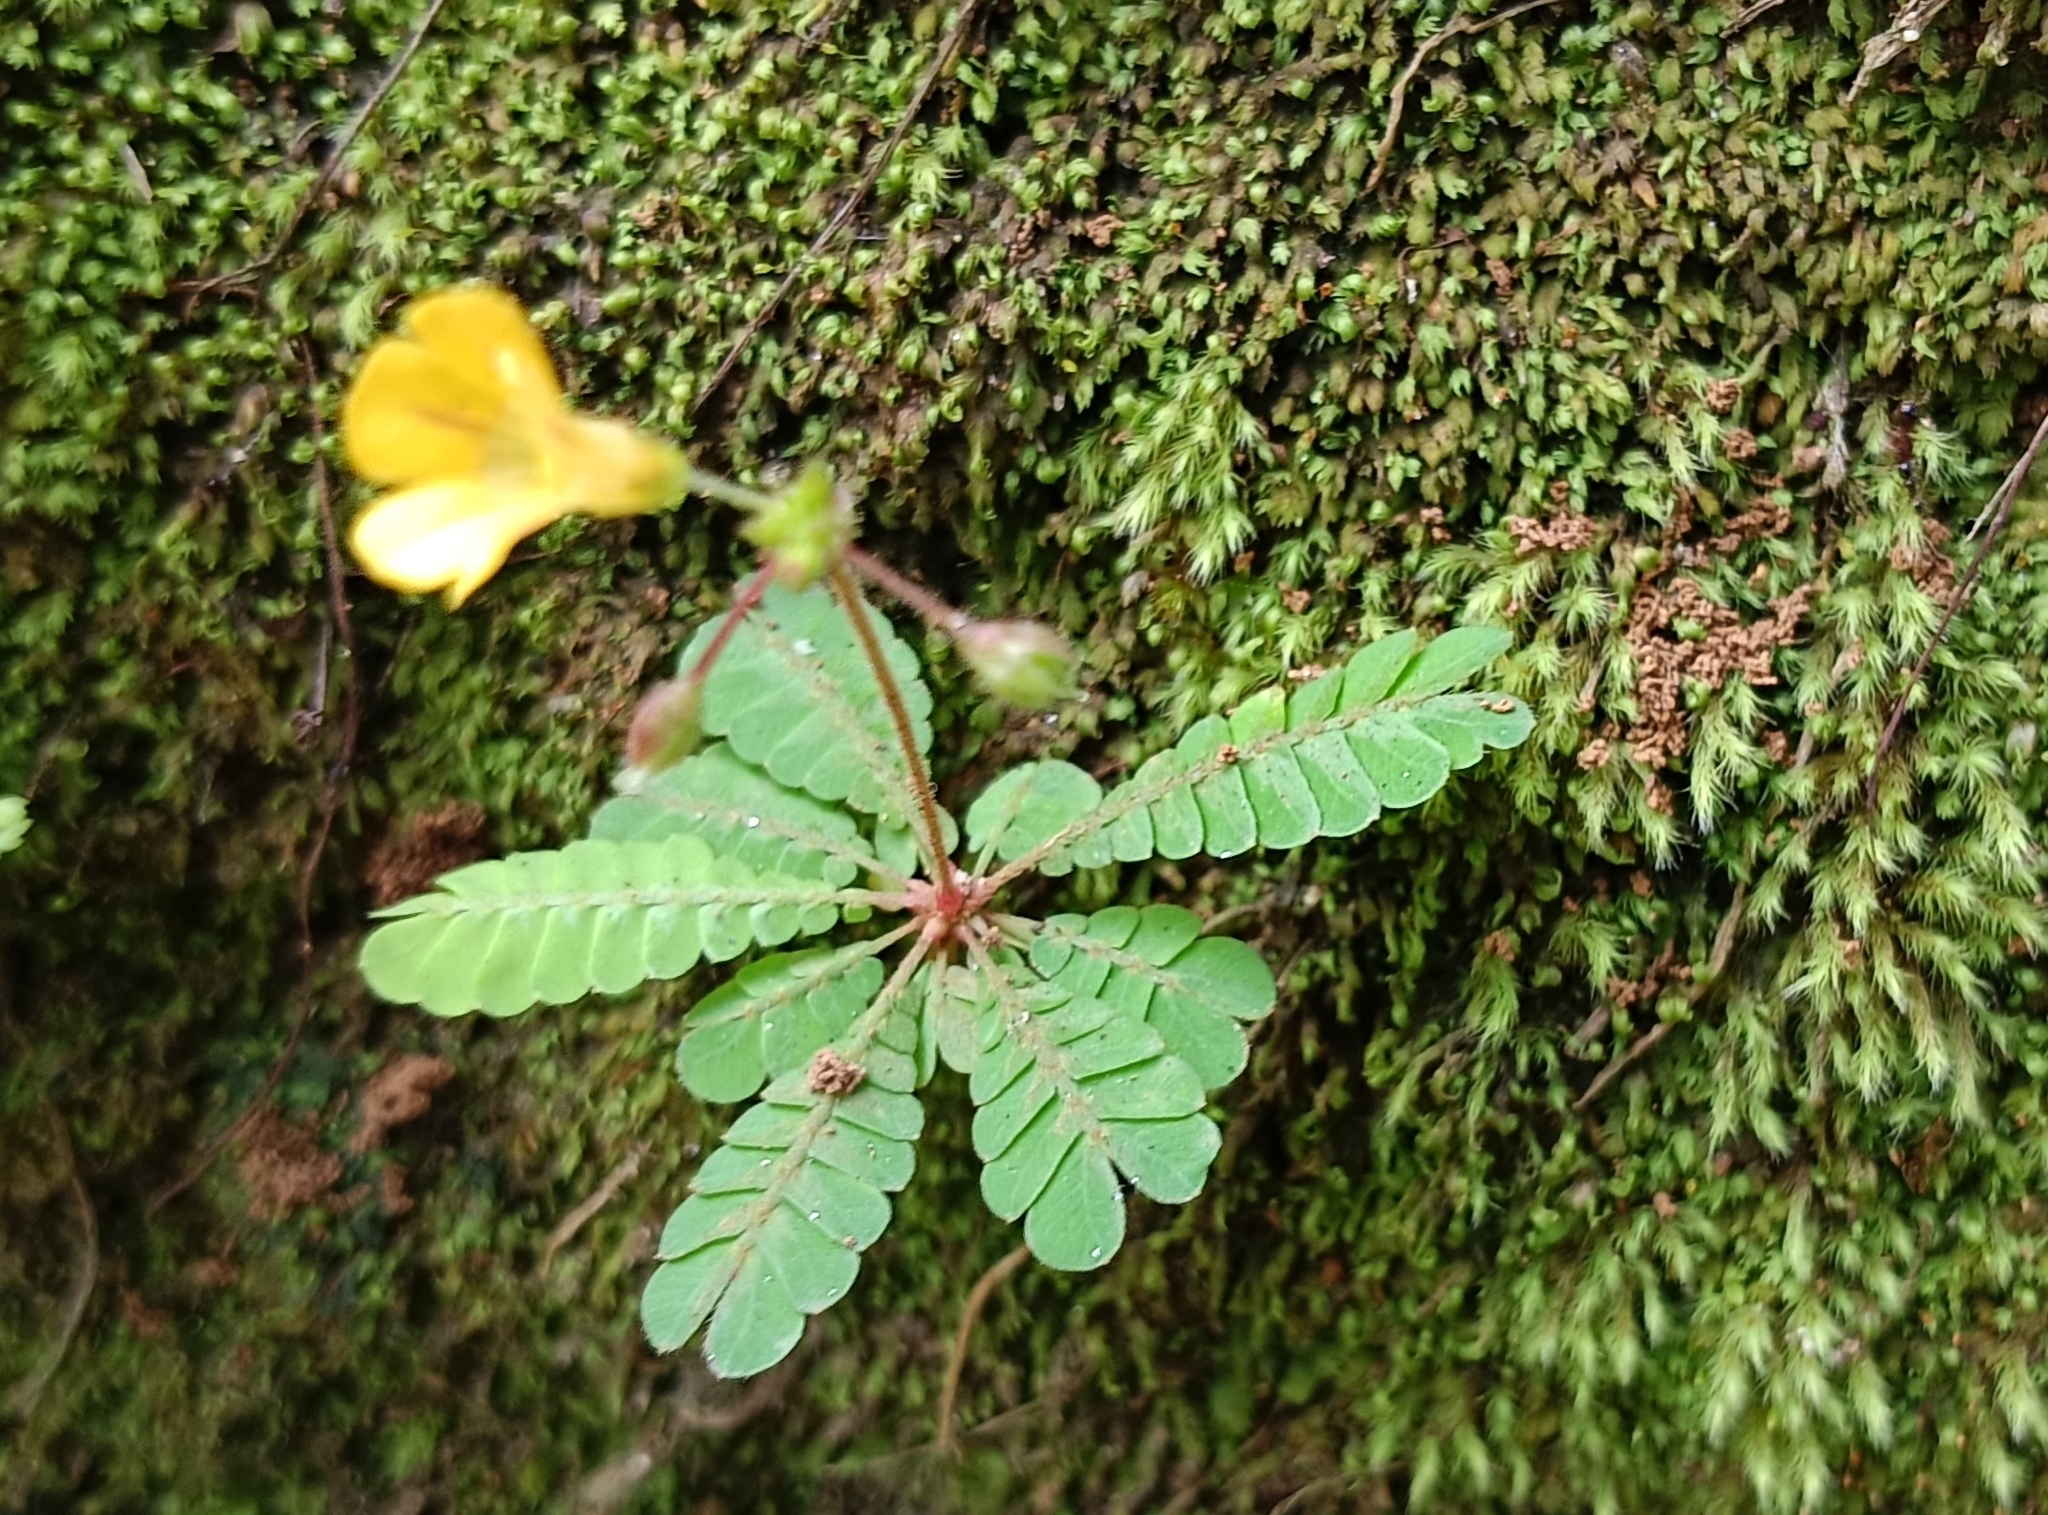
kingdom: Plantae
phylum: Tracheophyta
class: Magnoliopsida
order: Oxalidales
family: Oxalidaceae
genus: Biophytum
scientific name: Biophytum sensitivum
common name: Lifeplant
